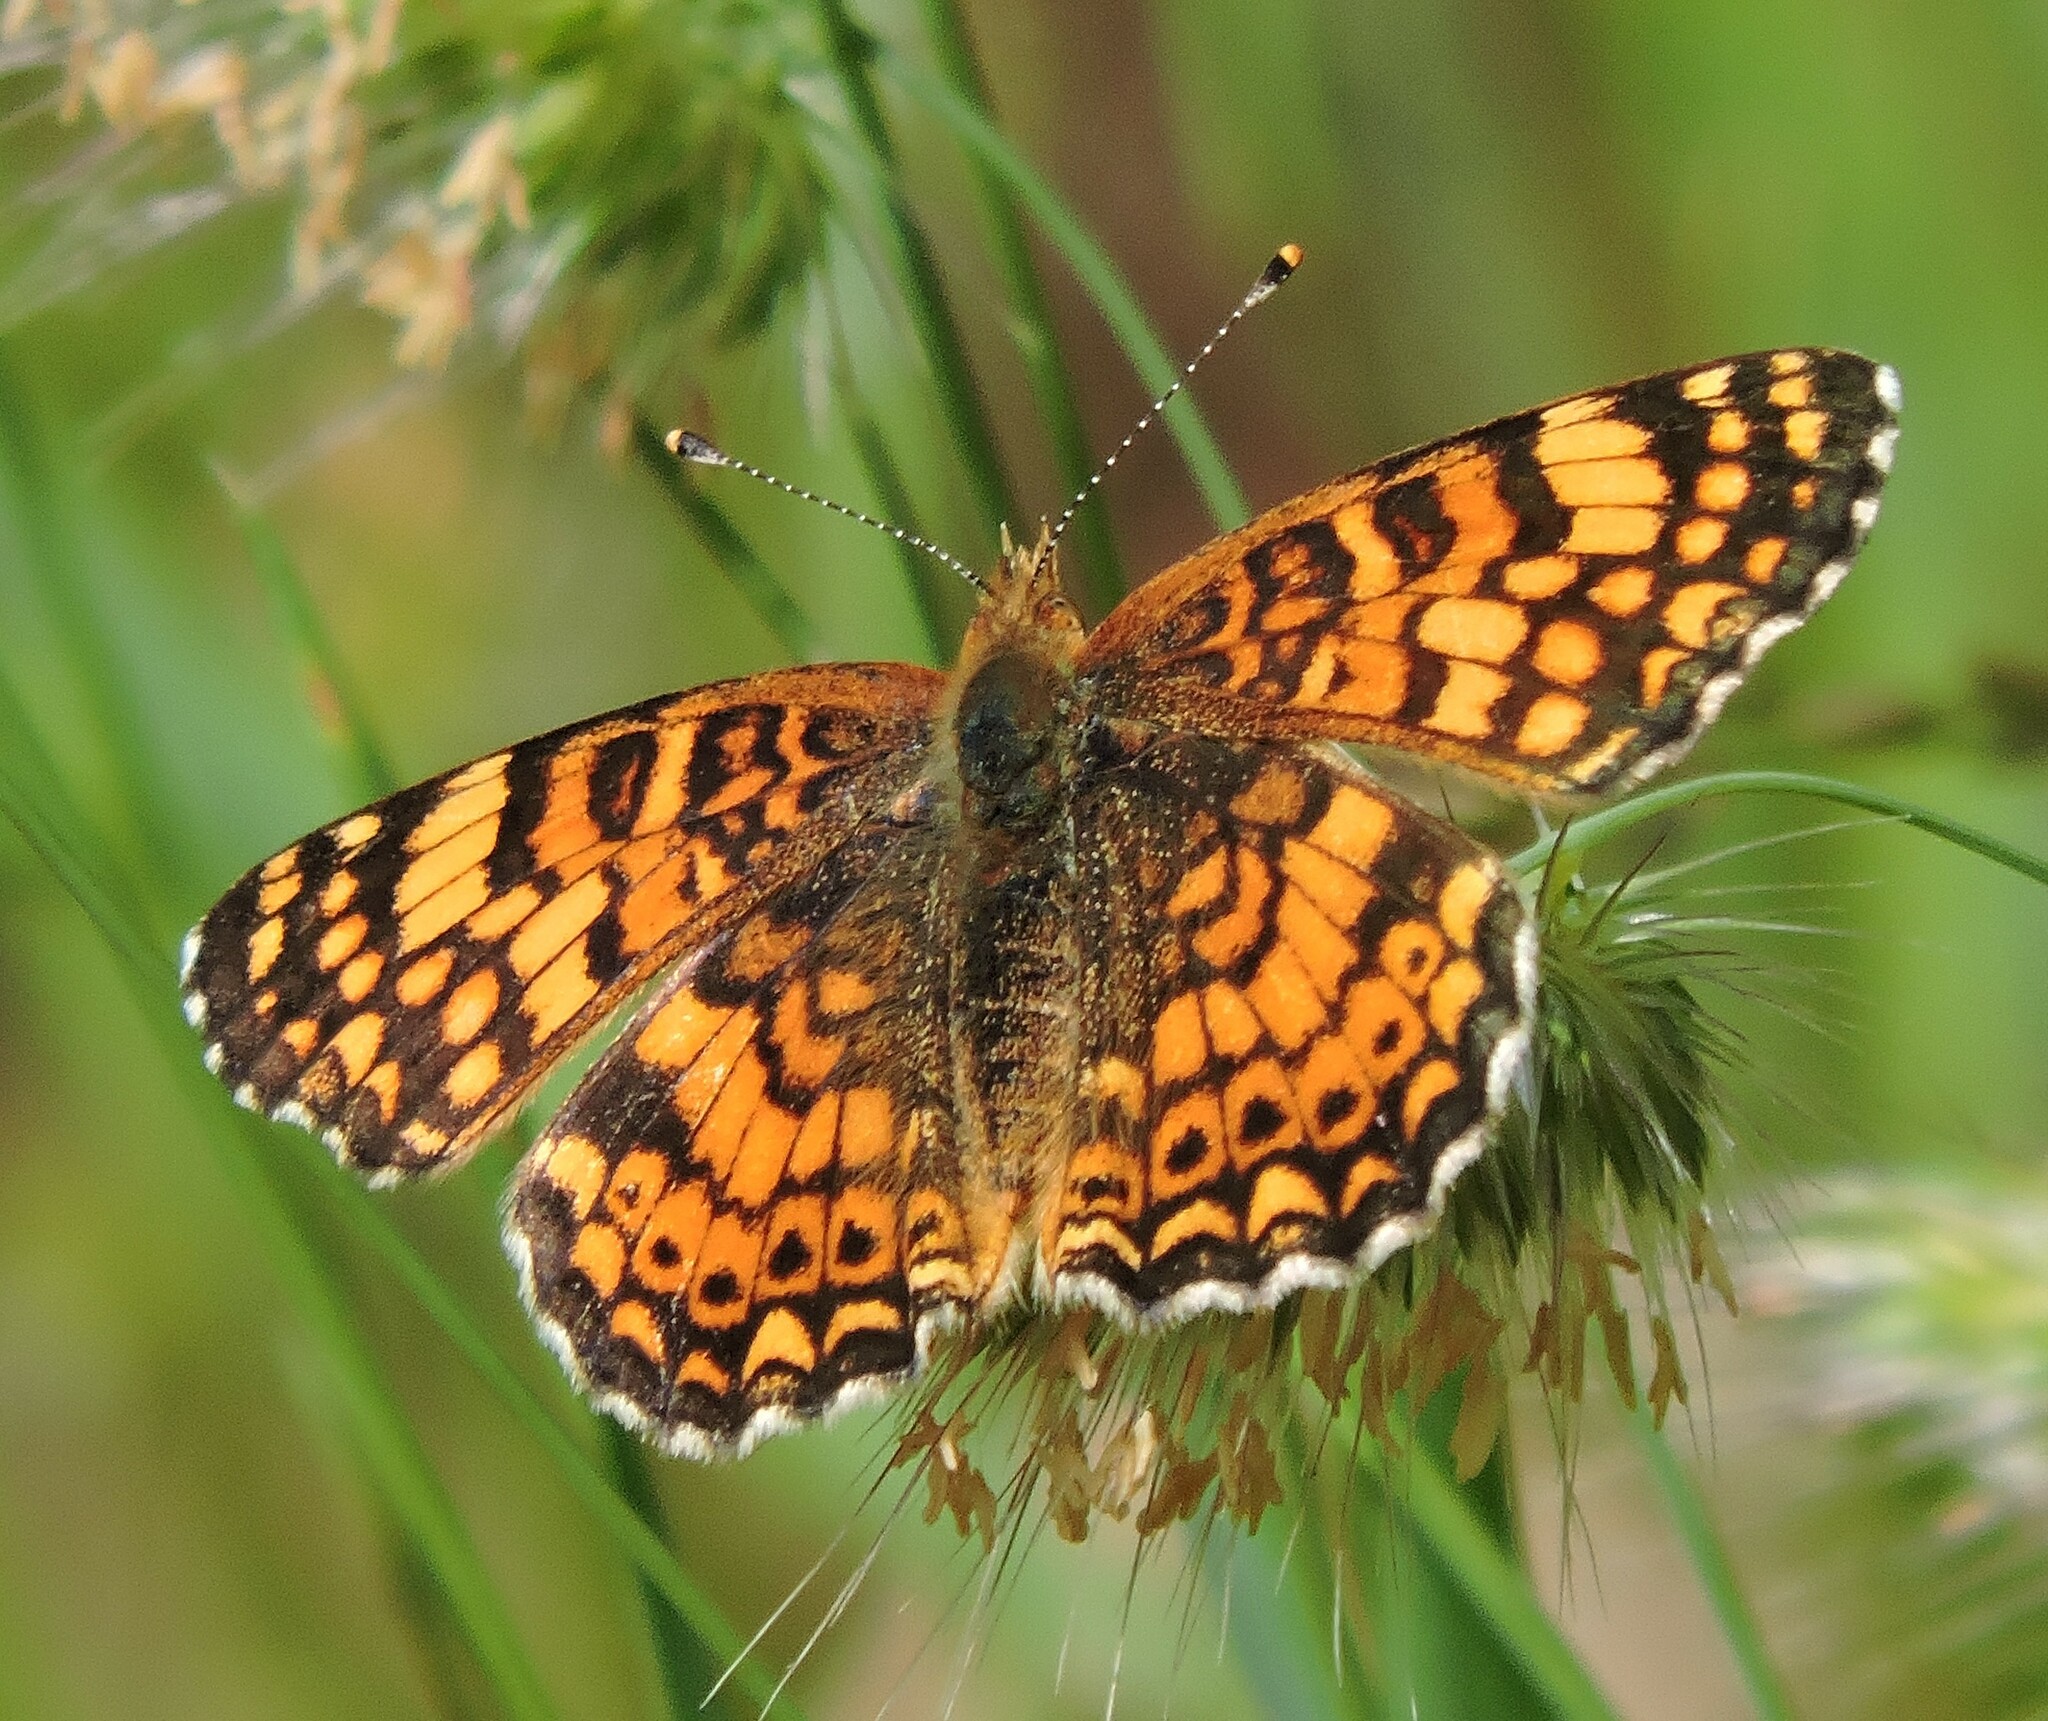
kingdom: Animalia
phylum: Arthropoda
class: Insecta
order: Lepidoptera
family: Nymphalidae
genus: Eresia
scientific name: Eresia aveyrona
